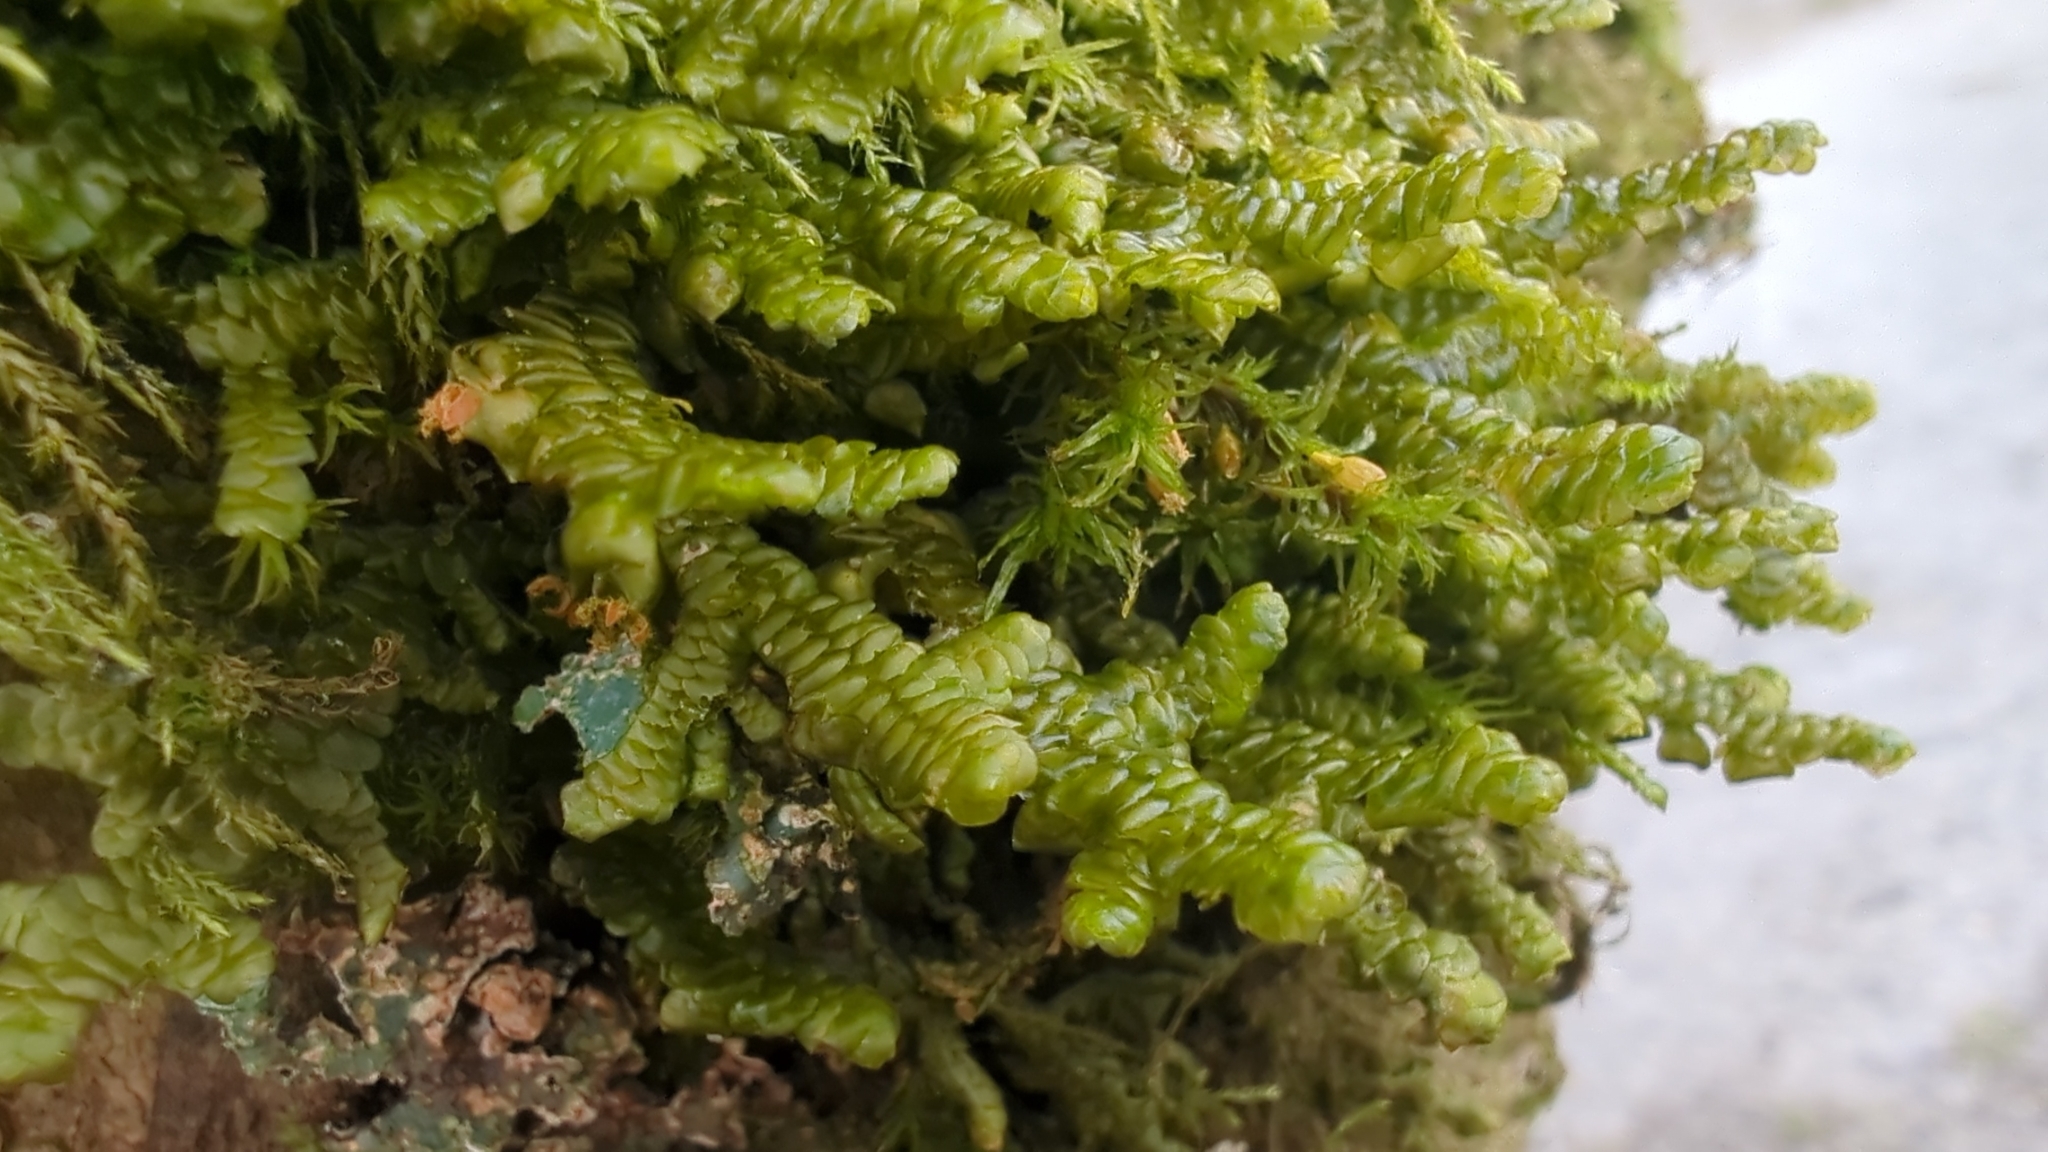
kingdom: Plantae
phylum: Marchantiophyta
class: Jungermanniopsida
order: Porellales
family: Porellaceae
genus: Porella
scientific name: Porella navicularis
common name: Tree ruffle liverwort
